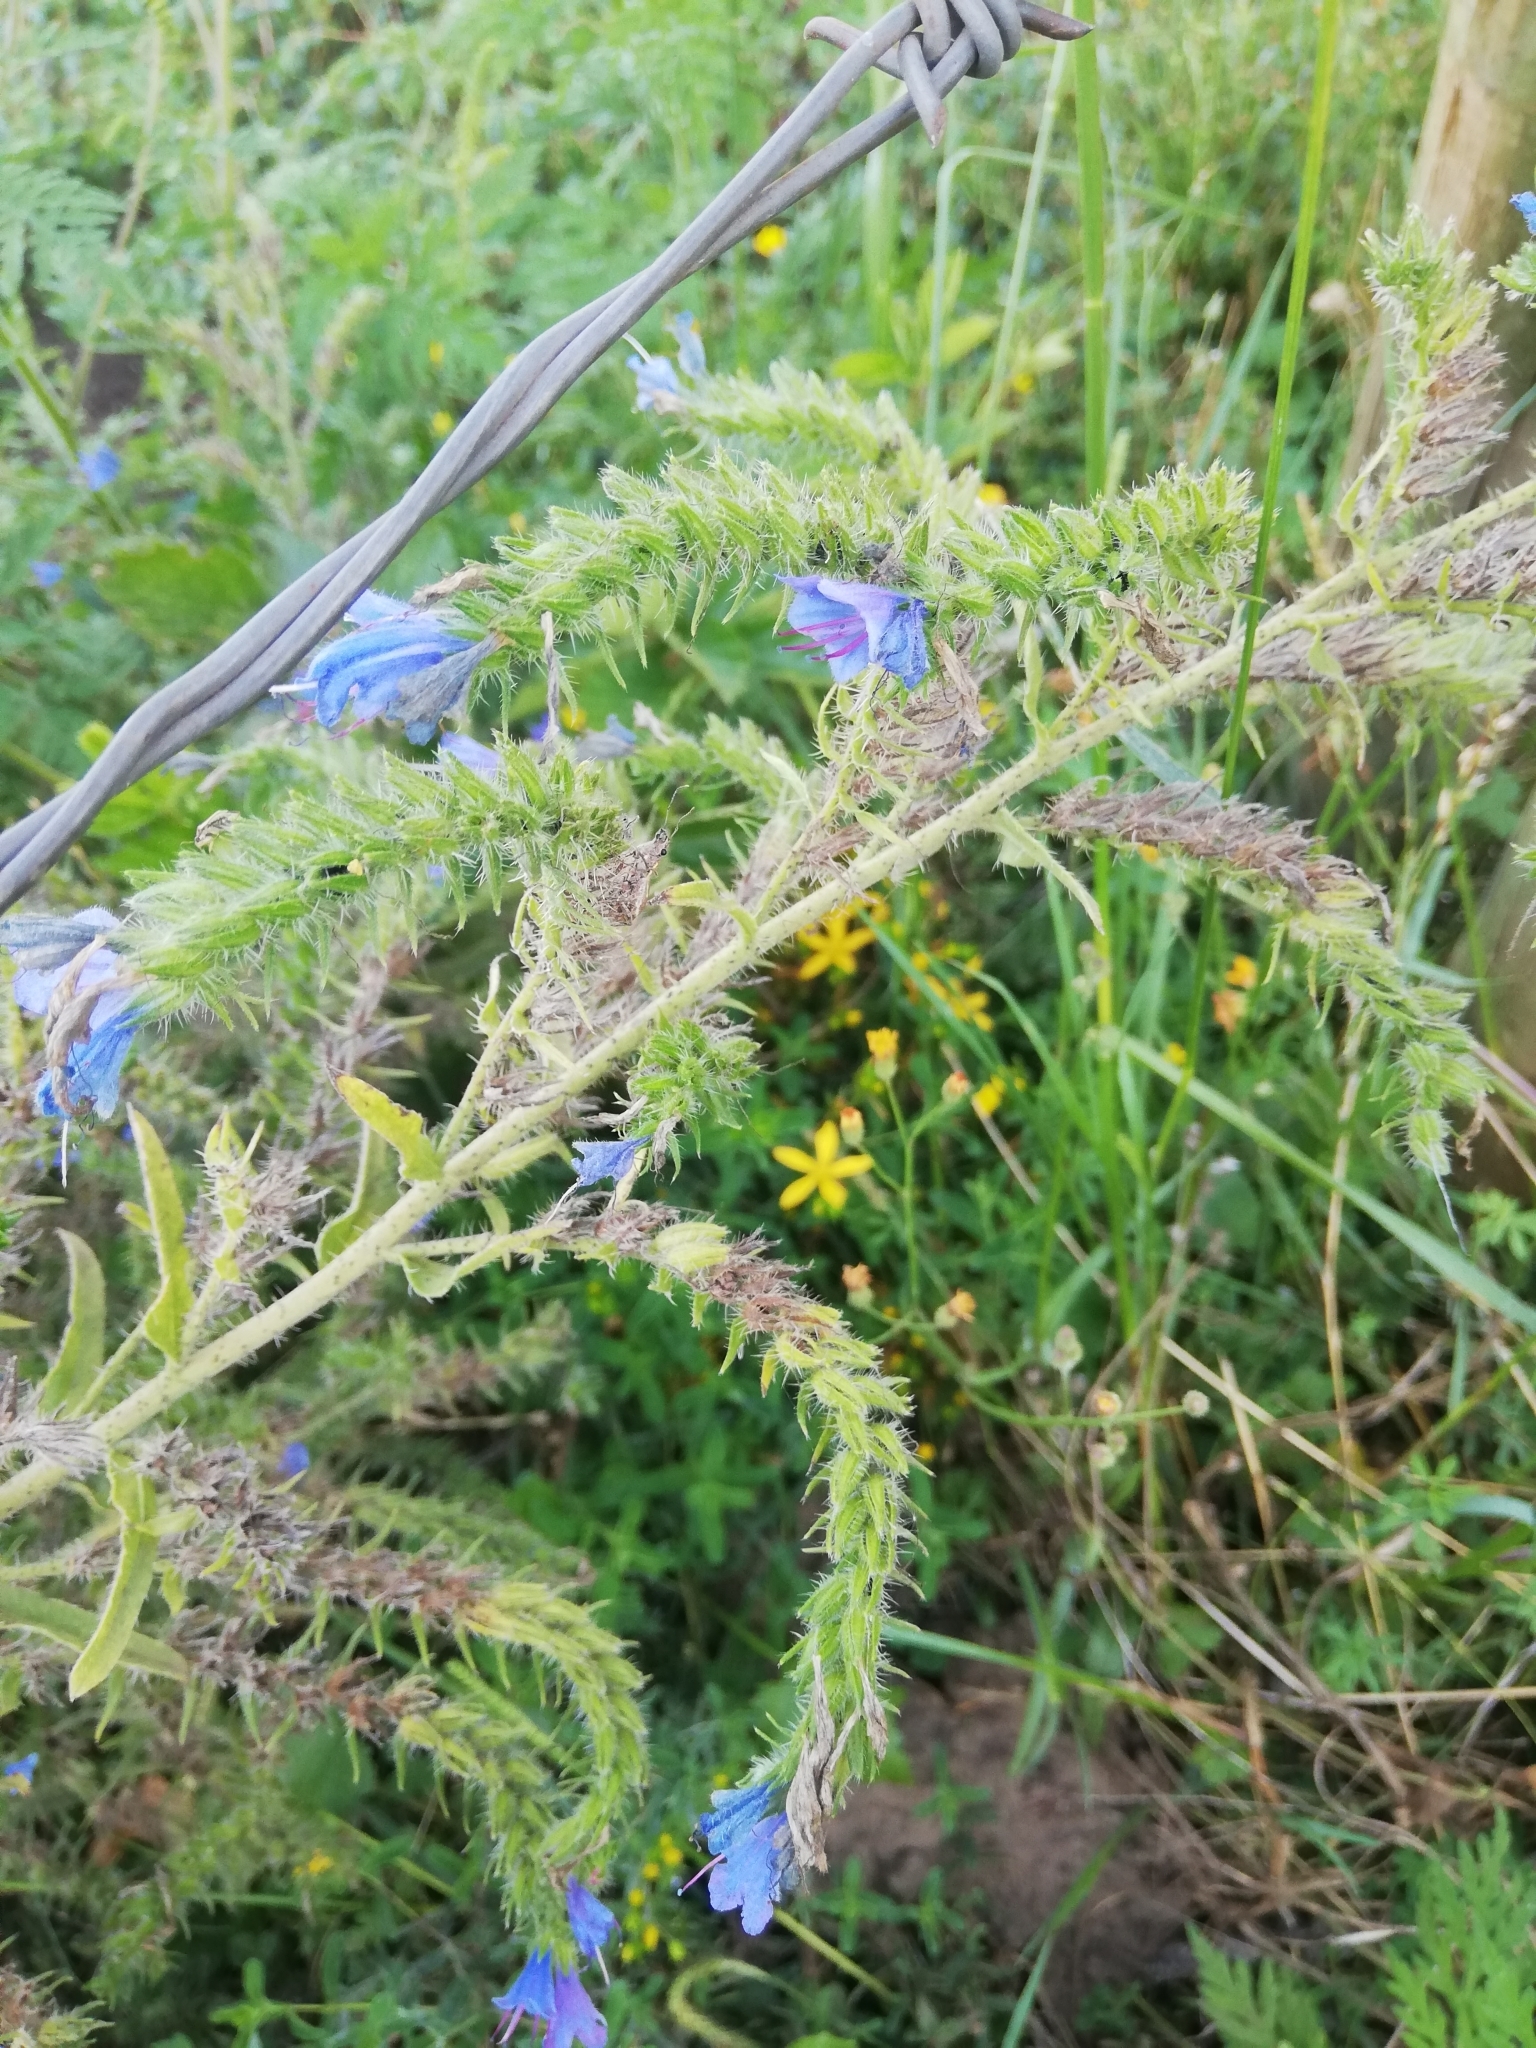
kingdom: Plantae
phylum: Tracheophyta
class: Magnoliopsida
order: Boraginales
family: Boraginaceae
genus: Echium
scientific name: Echium vulgare
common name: Common viper's bugloss
